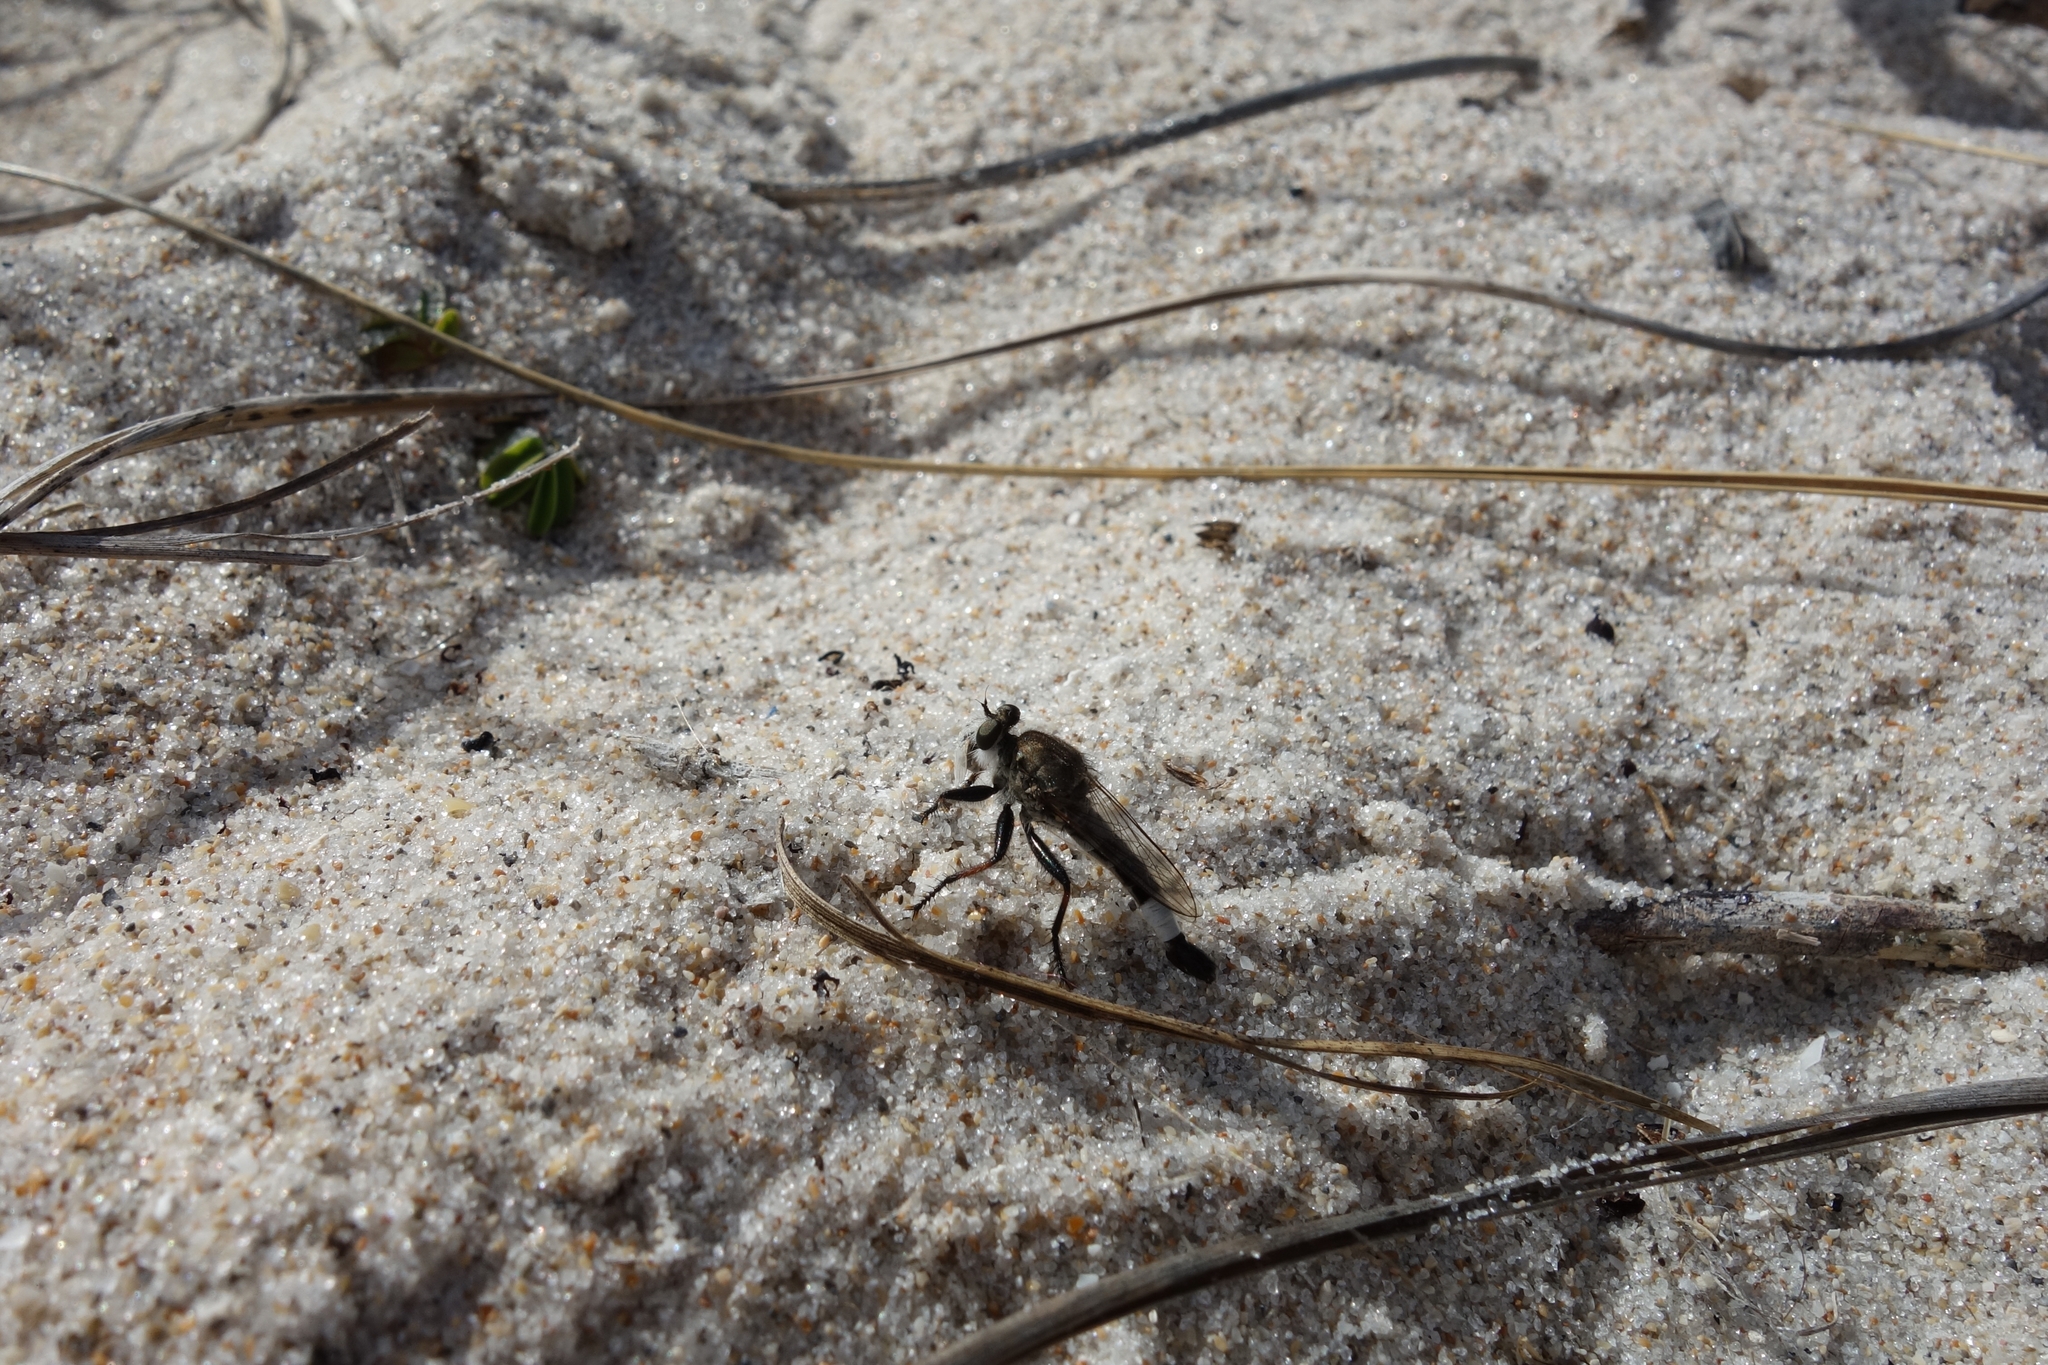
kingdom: Animalia
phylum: Arthropoda
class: Insecta
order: Diptera
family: Asilidae
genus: Efferia
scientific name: Efferia albibarbis
